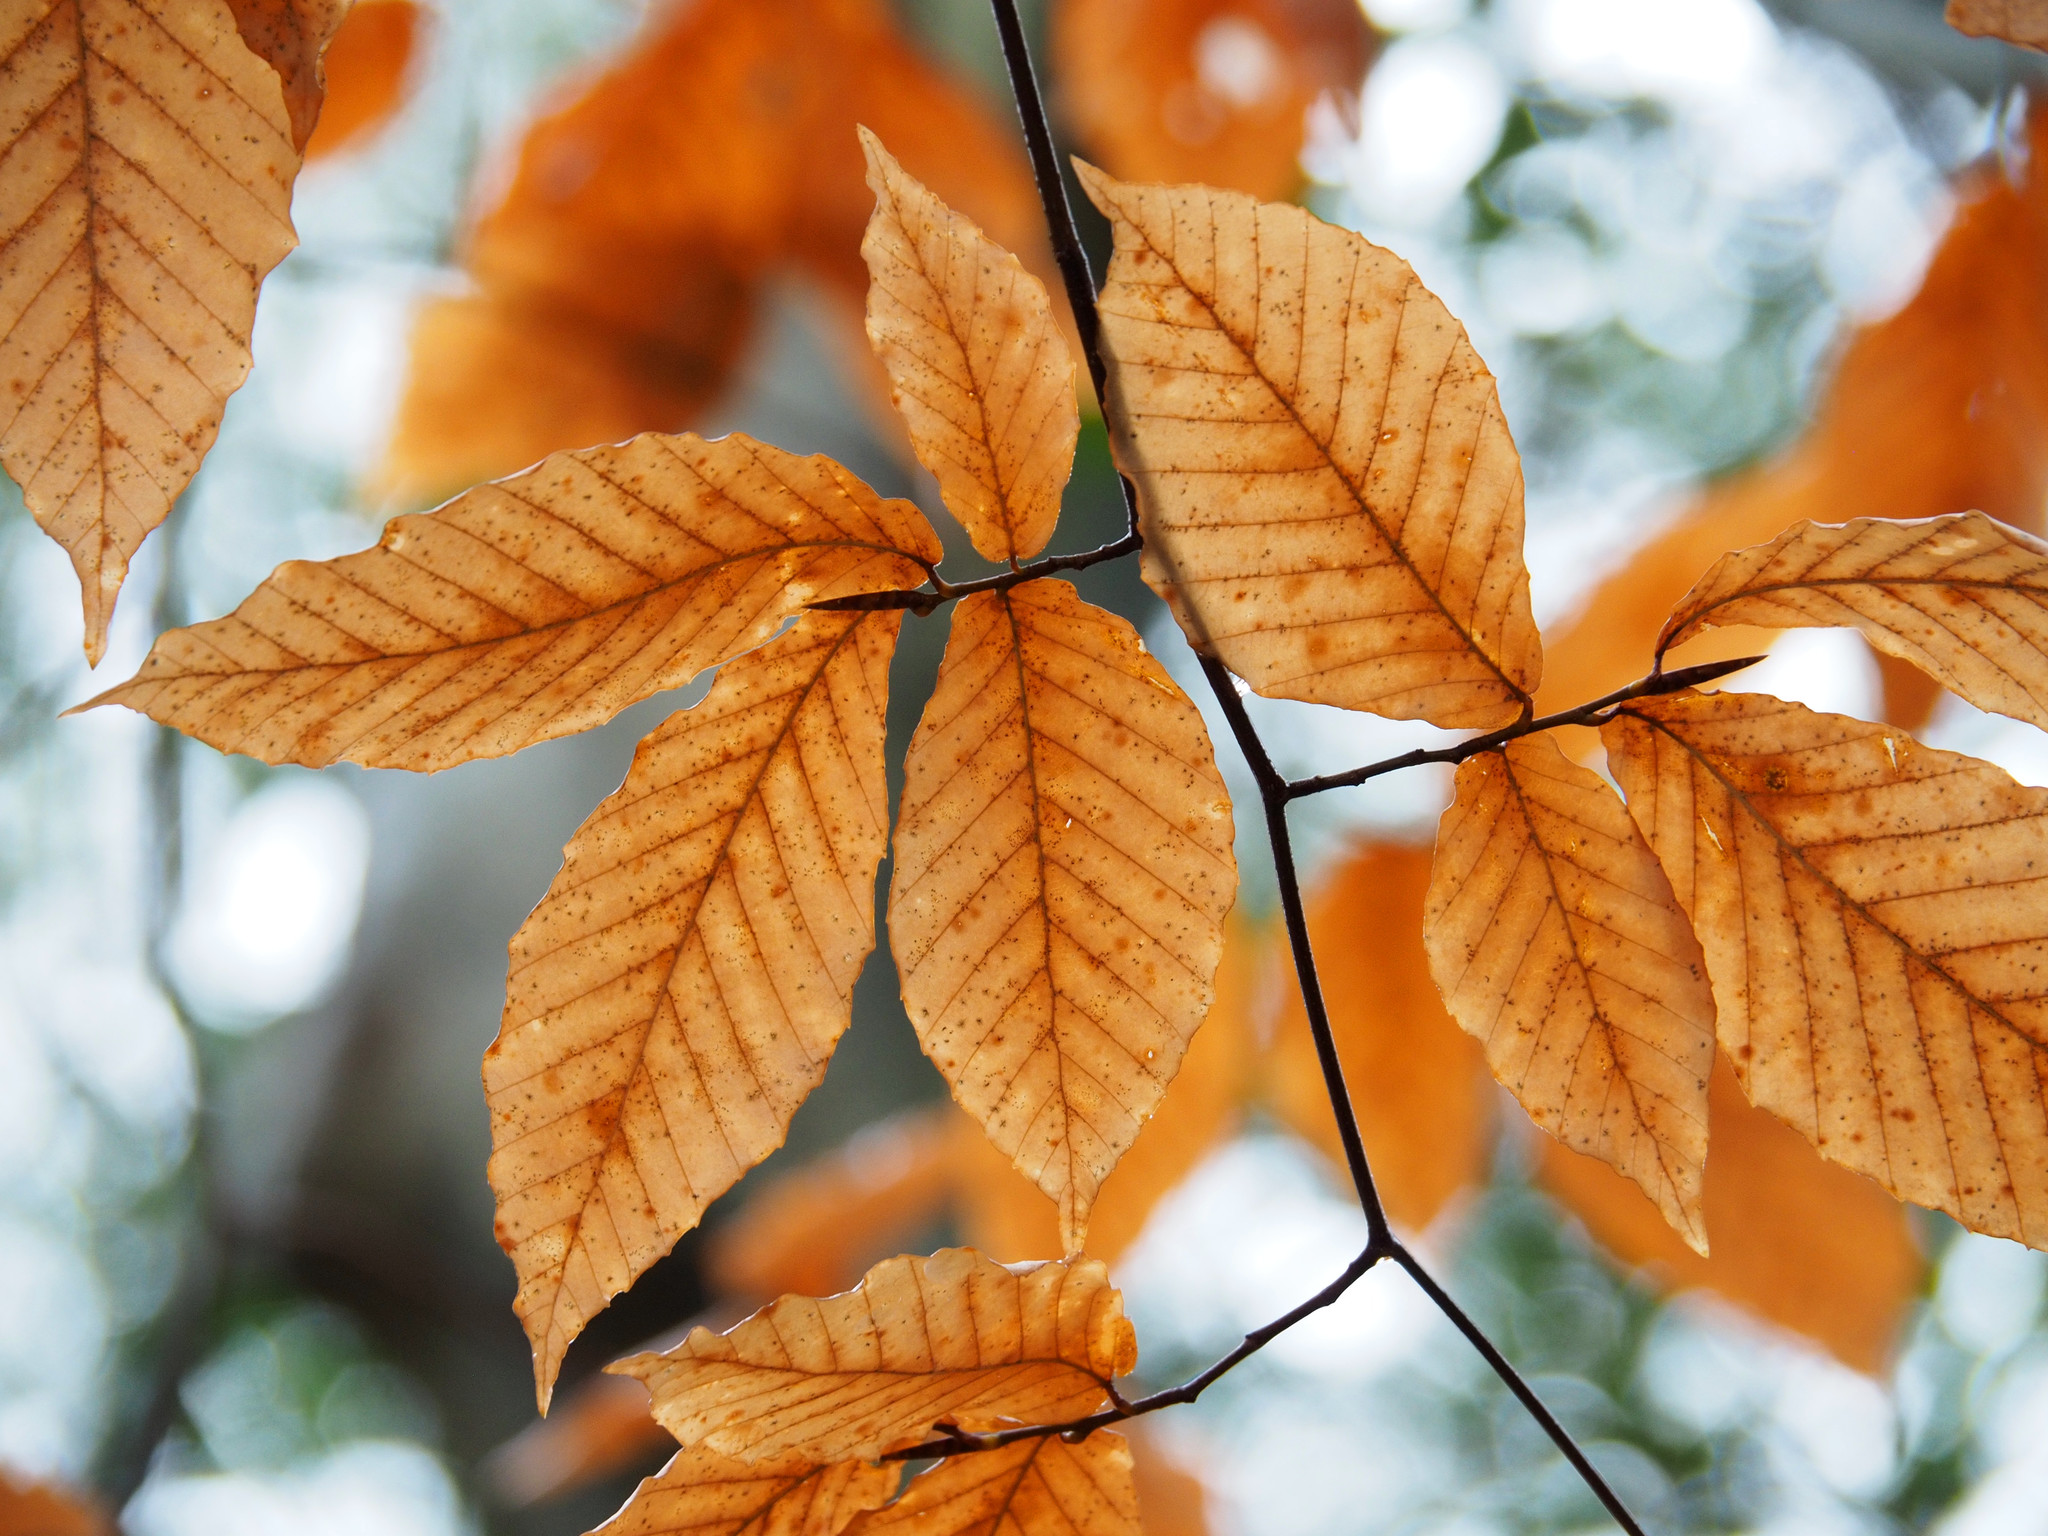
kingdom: Plantae
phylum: Tracheophyta
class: Magnoliopsida
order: Fagales
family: Fagaceae
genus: Fagus
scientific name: Fagus grandifolia
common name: American beech
